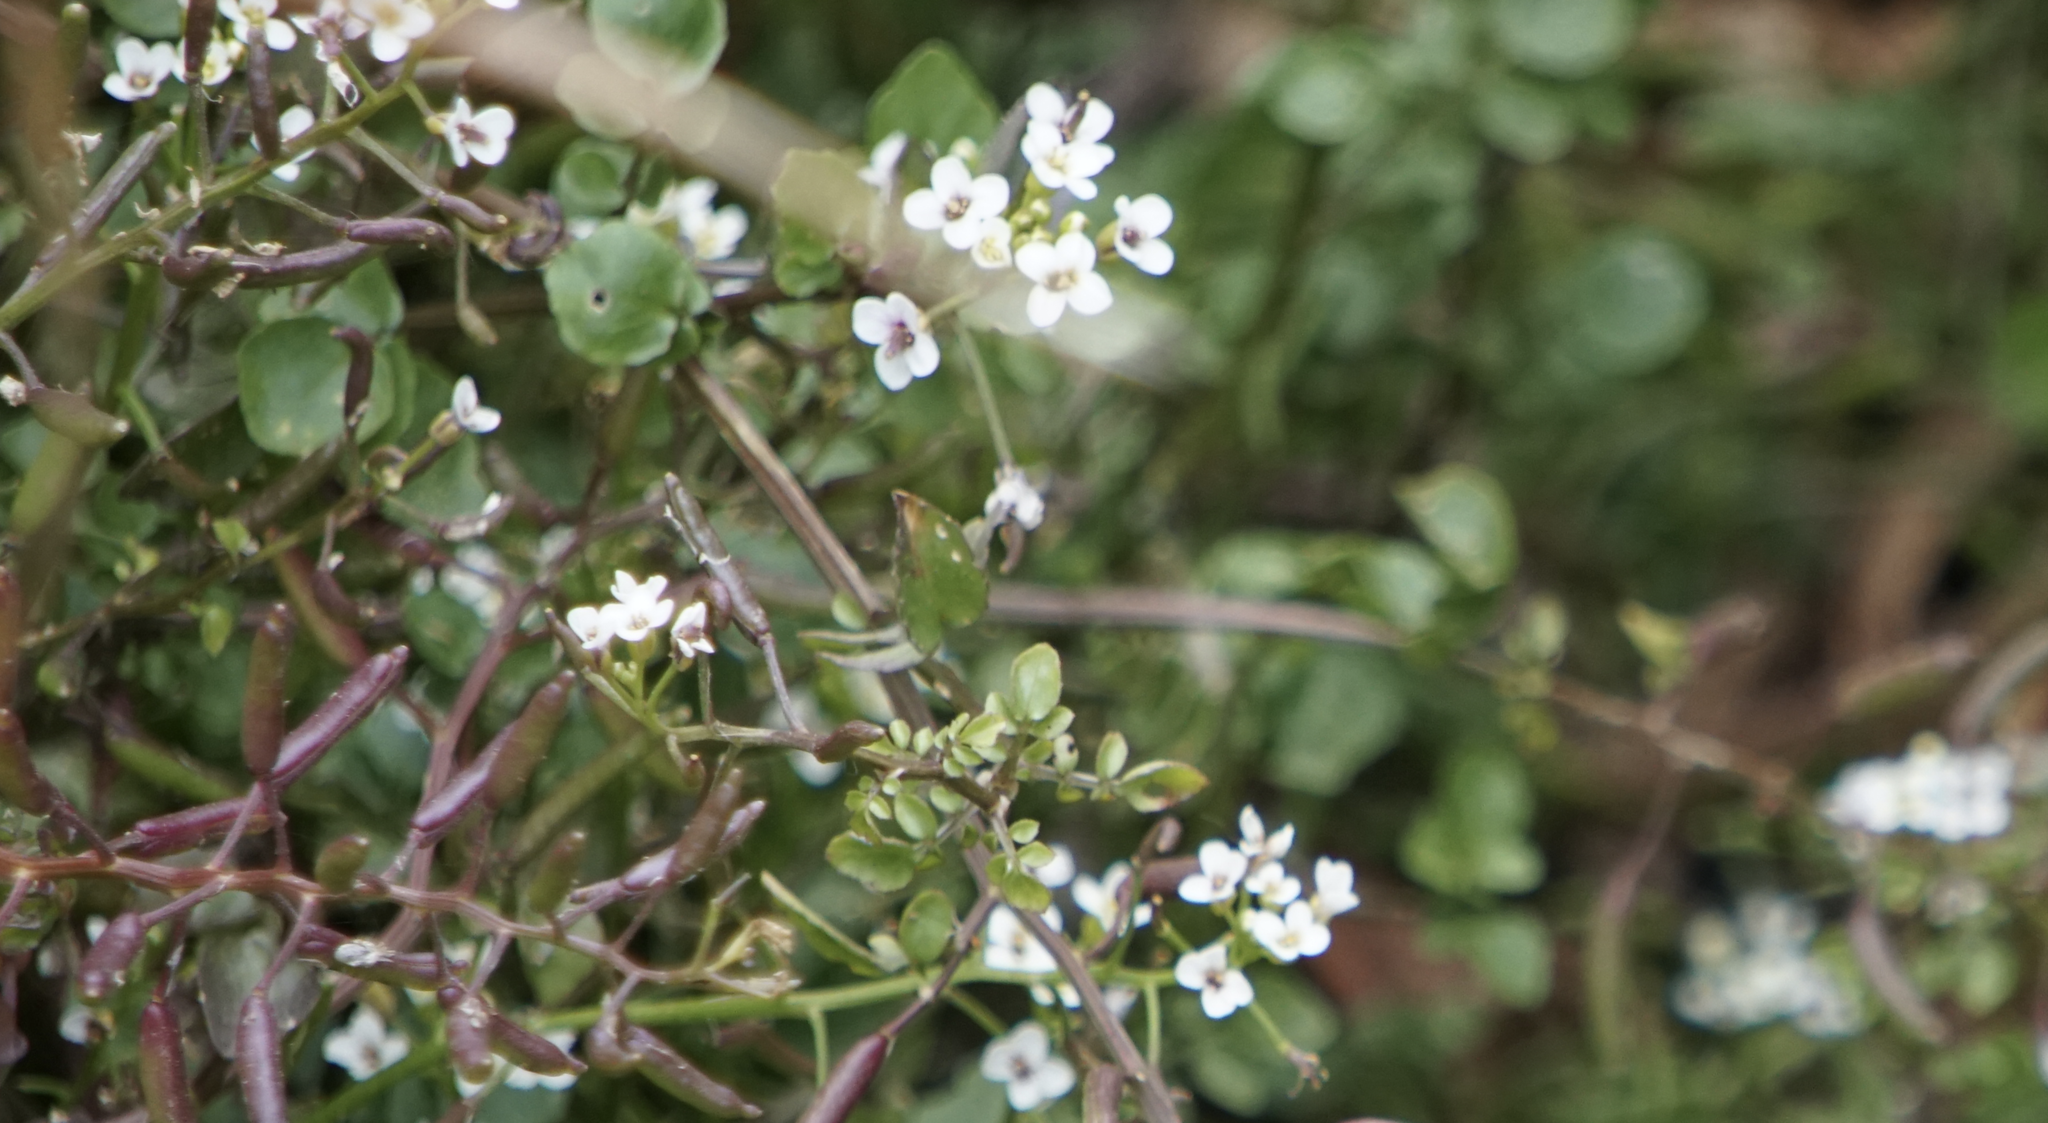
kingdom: Plantae
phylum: Tracheophyta
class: Magnoliopsida
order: Brassicales
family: Brassicaceae
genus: Nasturtium
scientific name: Nasturtium officinale
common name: Watercress
